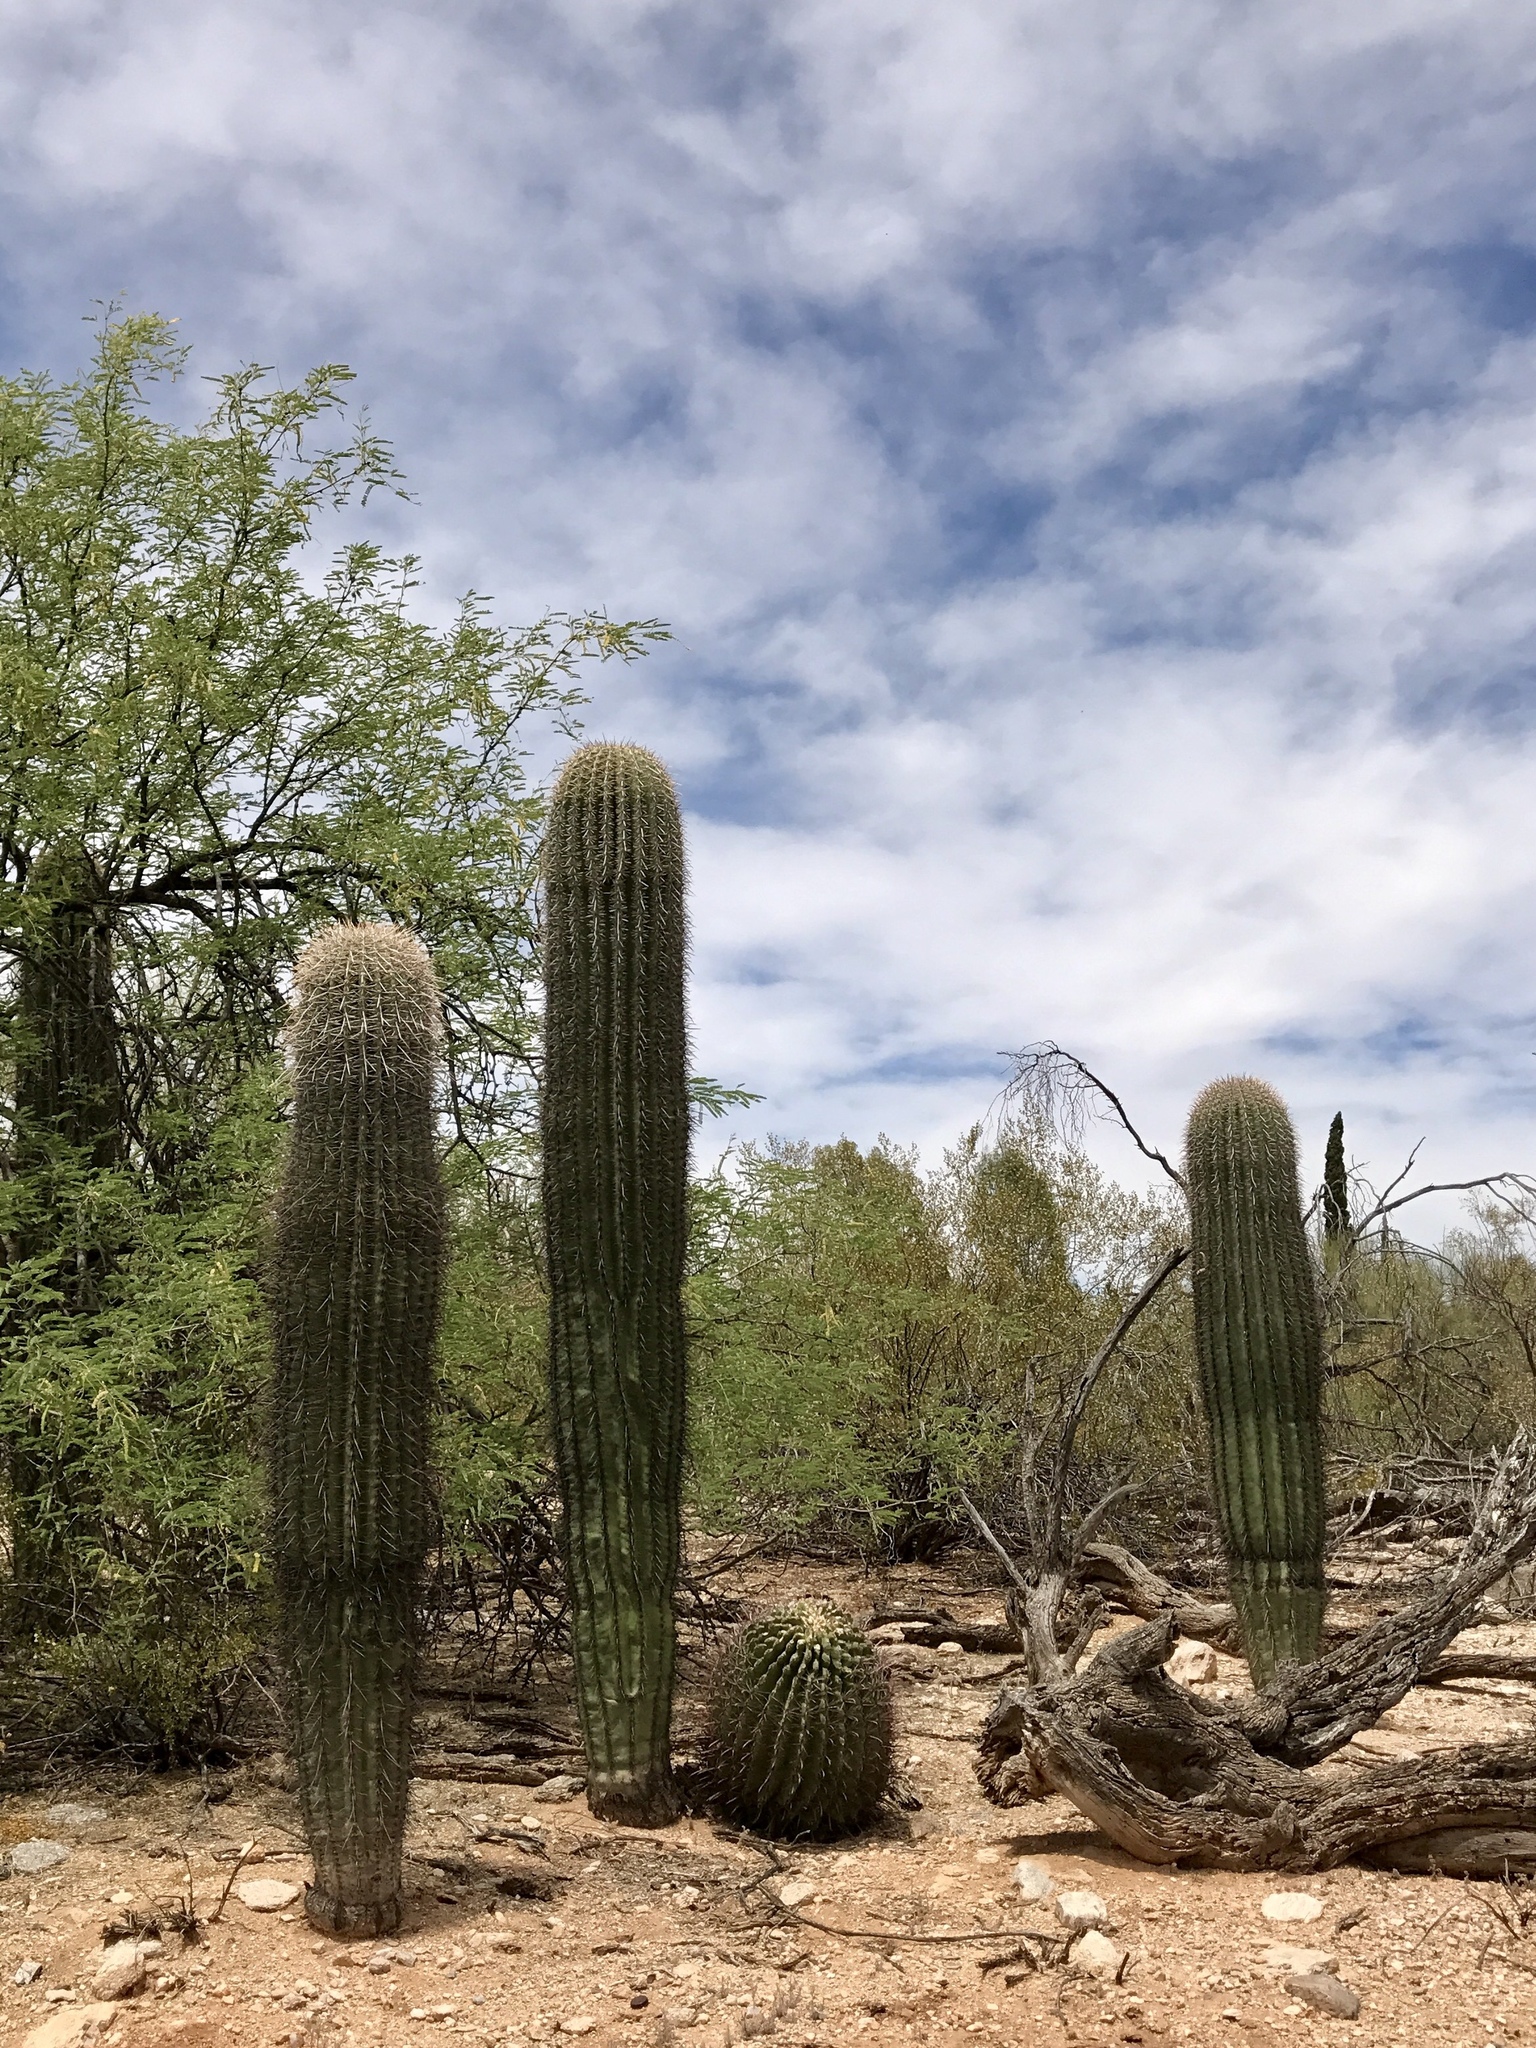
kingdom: Plantae
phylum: Tracheophyta
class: Magnoliopsida
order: Caryophyllales
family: Cactaceae
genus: Carnegiea
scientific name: Carnegiea gigantea
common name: Saguaro
